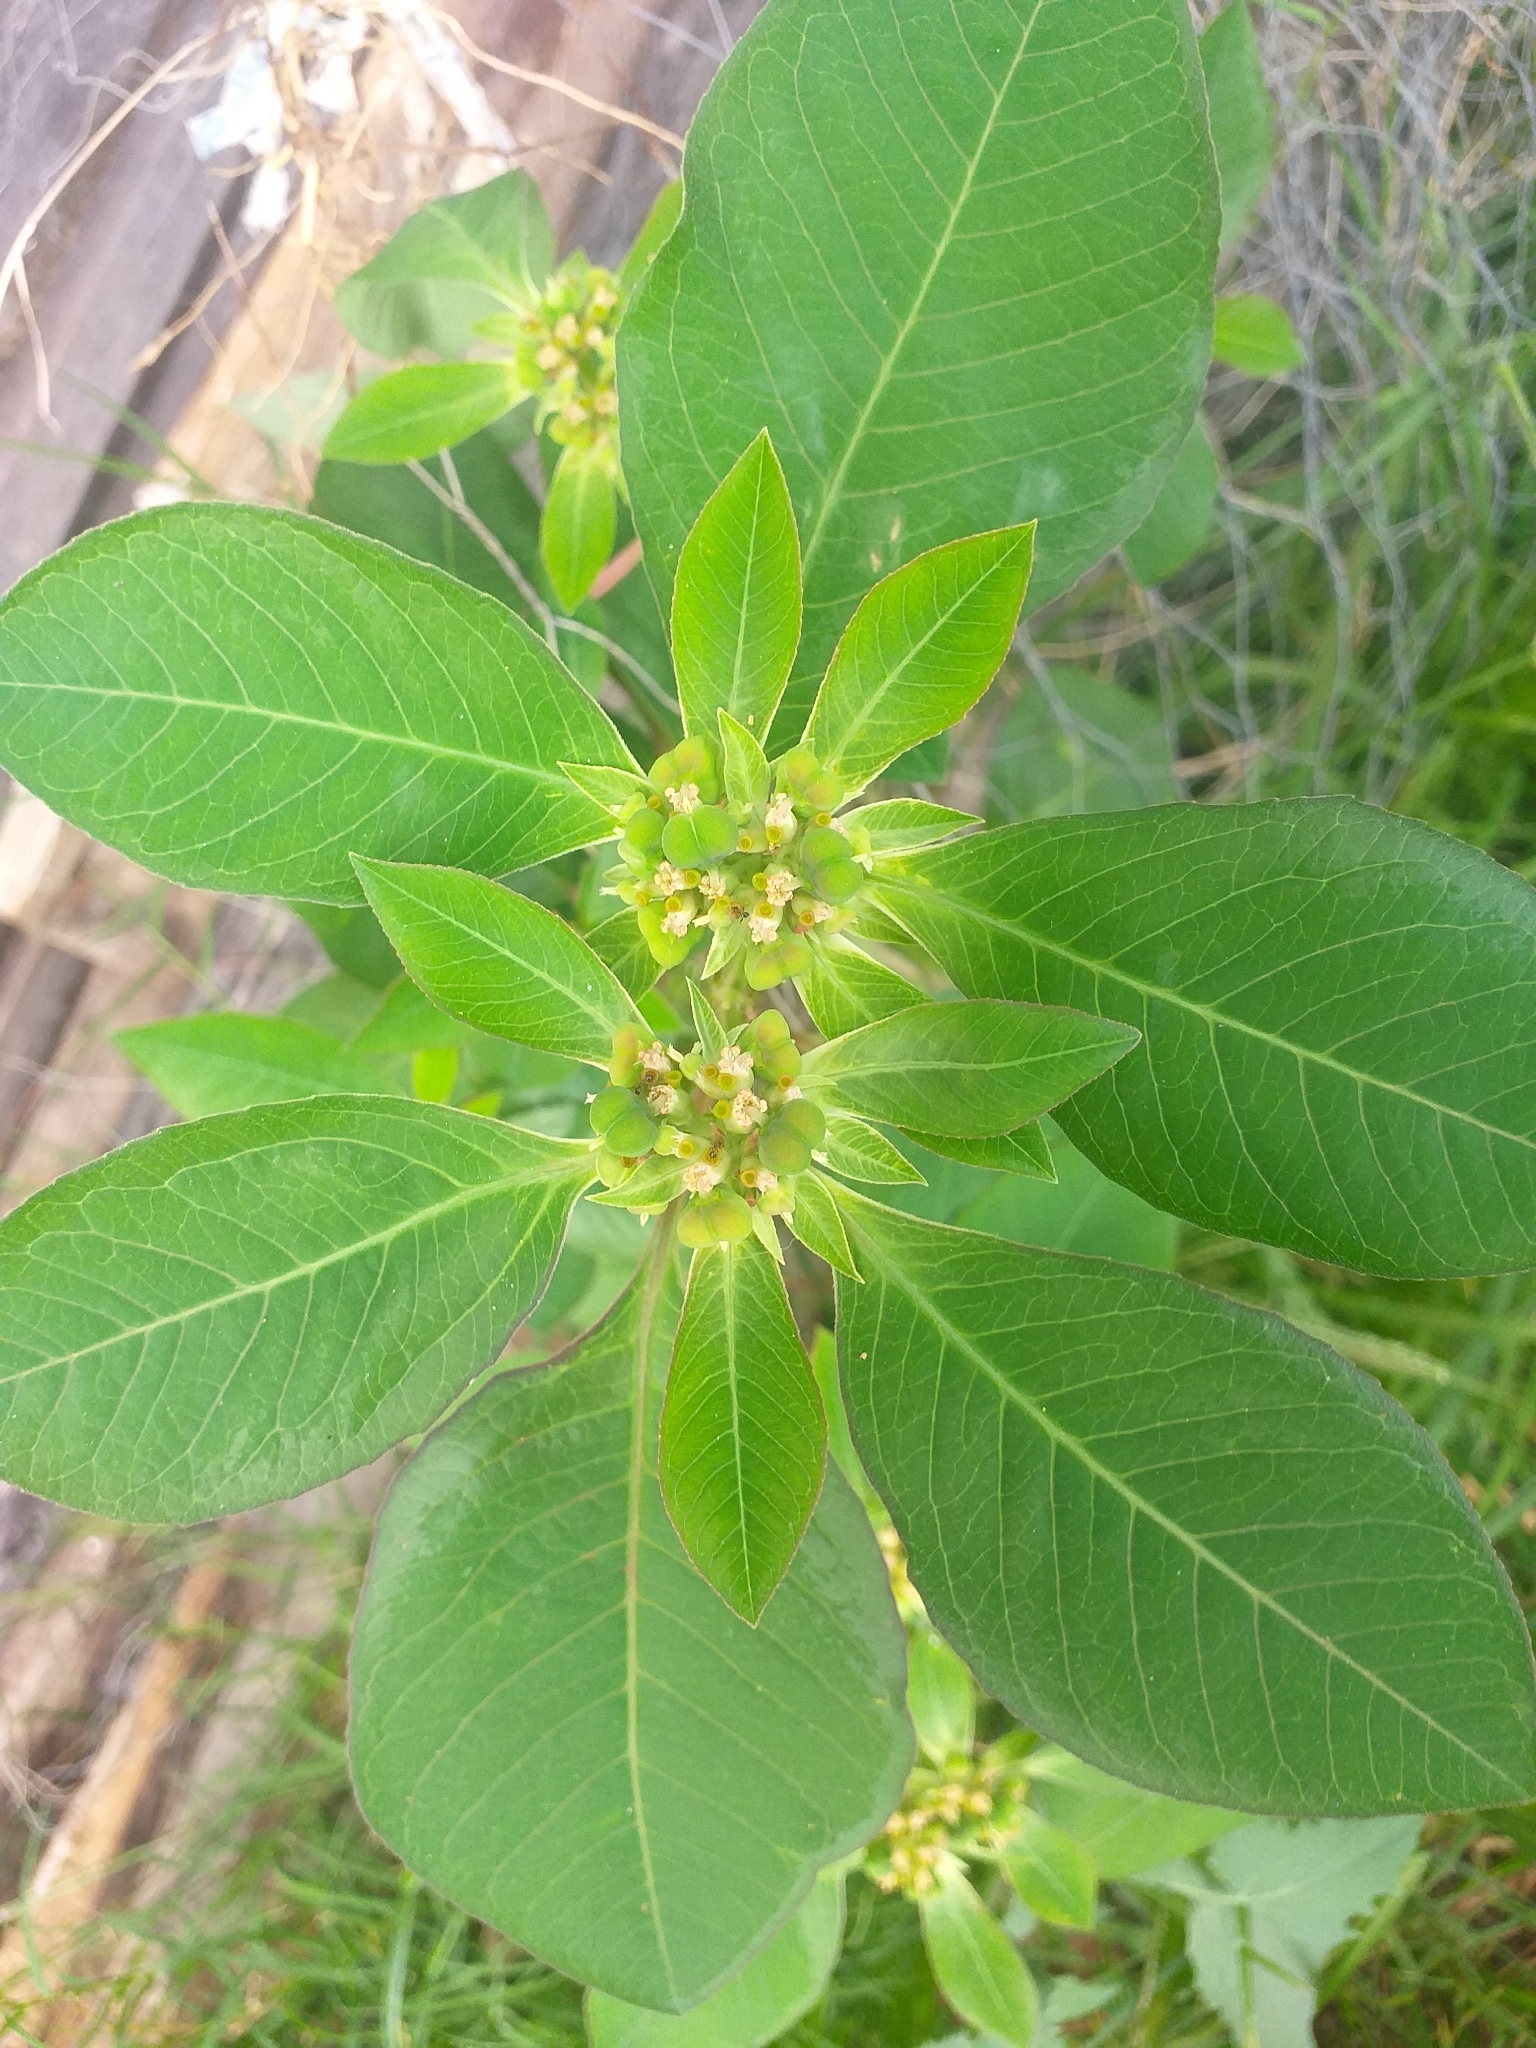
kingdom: Plantae
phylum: Tracheophyta
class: Magnoliopsida
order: Malpighiales
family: Euphorbiaceae
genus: Euphorbia
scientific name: Euphorbia heterophylla
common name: Mexican fireplant
